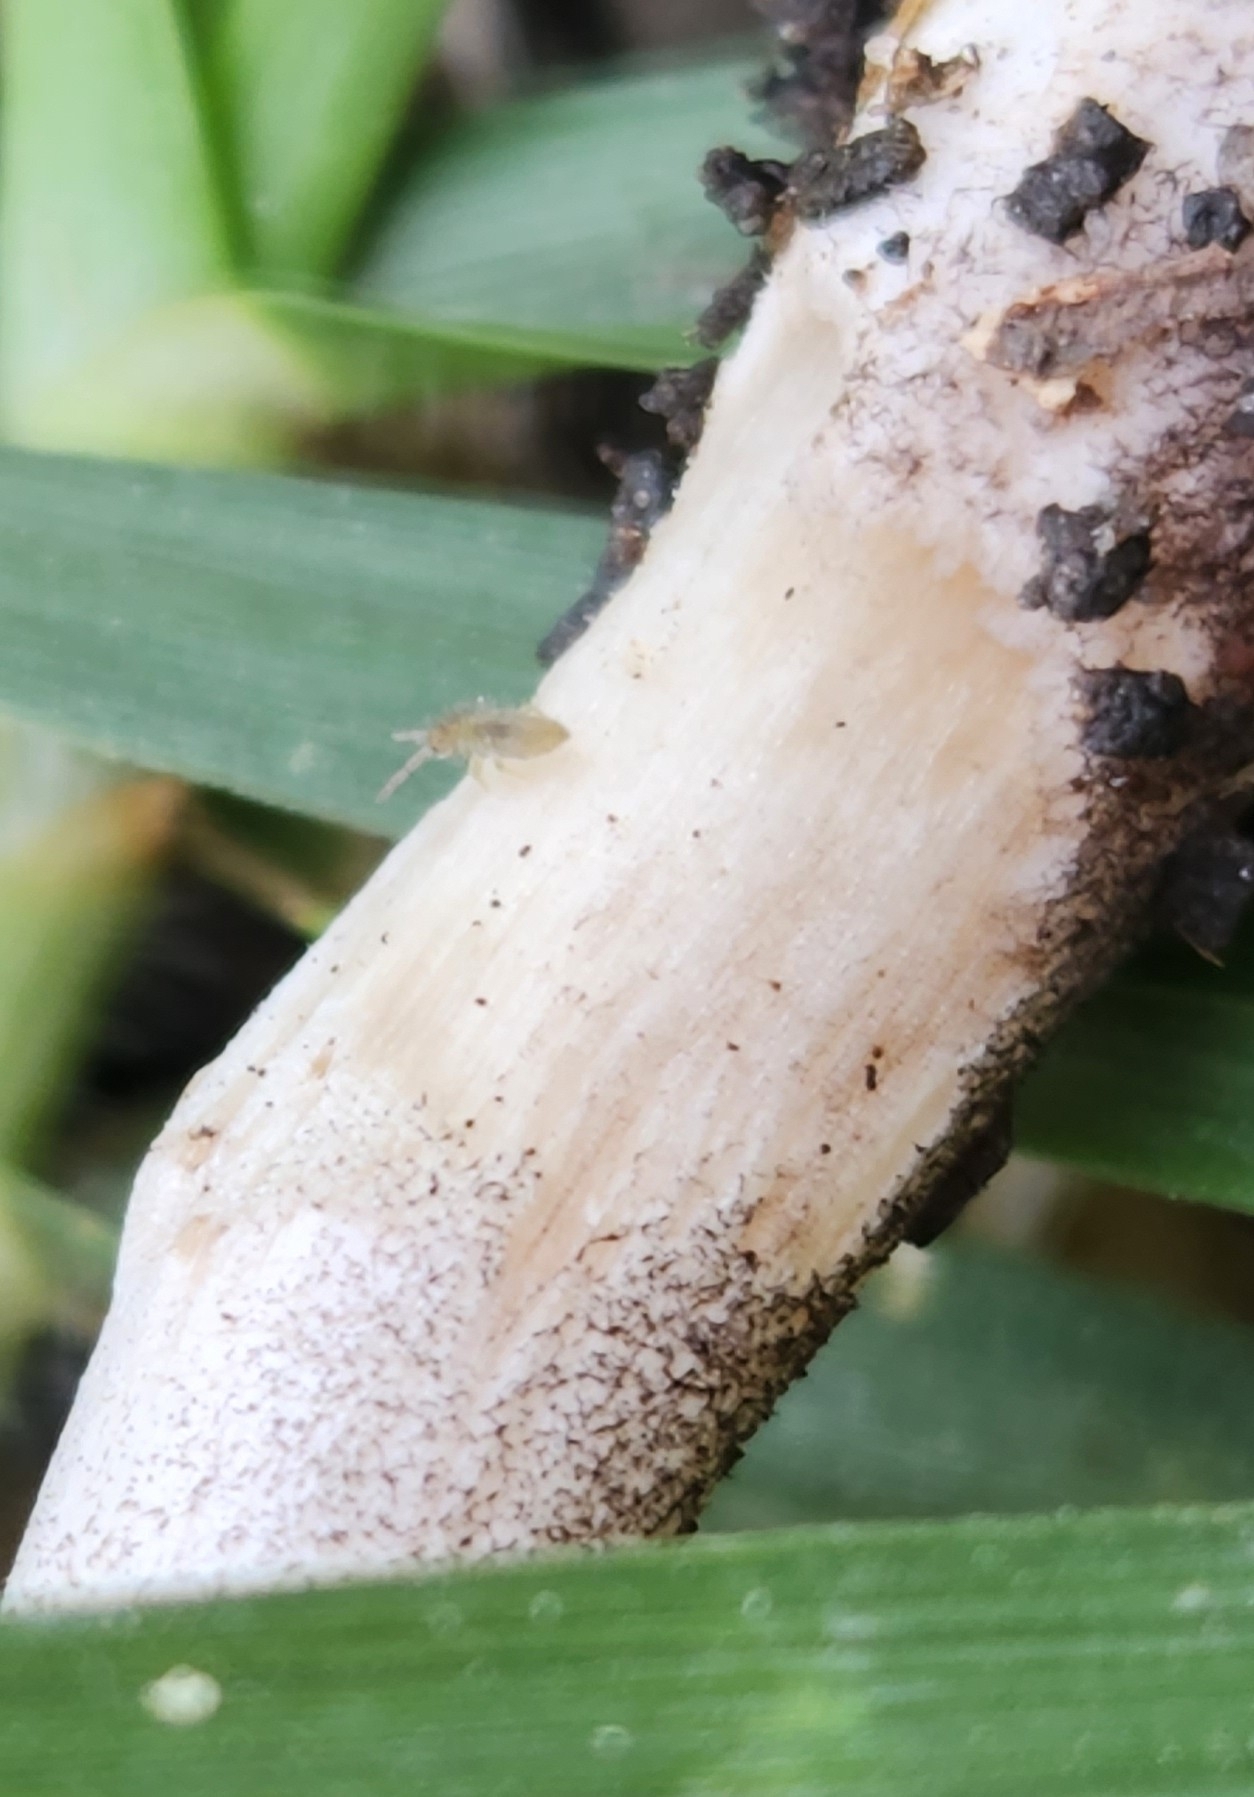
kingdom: Animalia
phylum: Arthropoda
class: Collembola
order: Entomobryomorpha
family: Entomobryidae
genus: Entomobrya
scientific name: Entomobrya unostrigata
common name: Springtail
